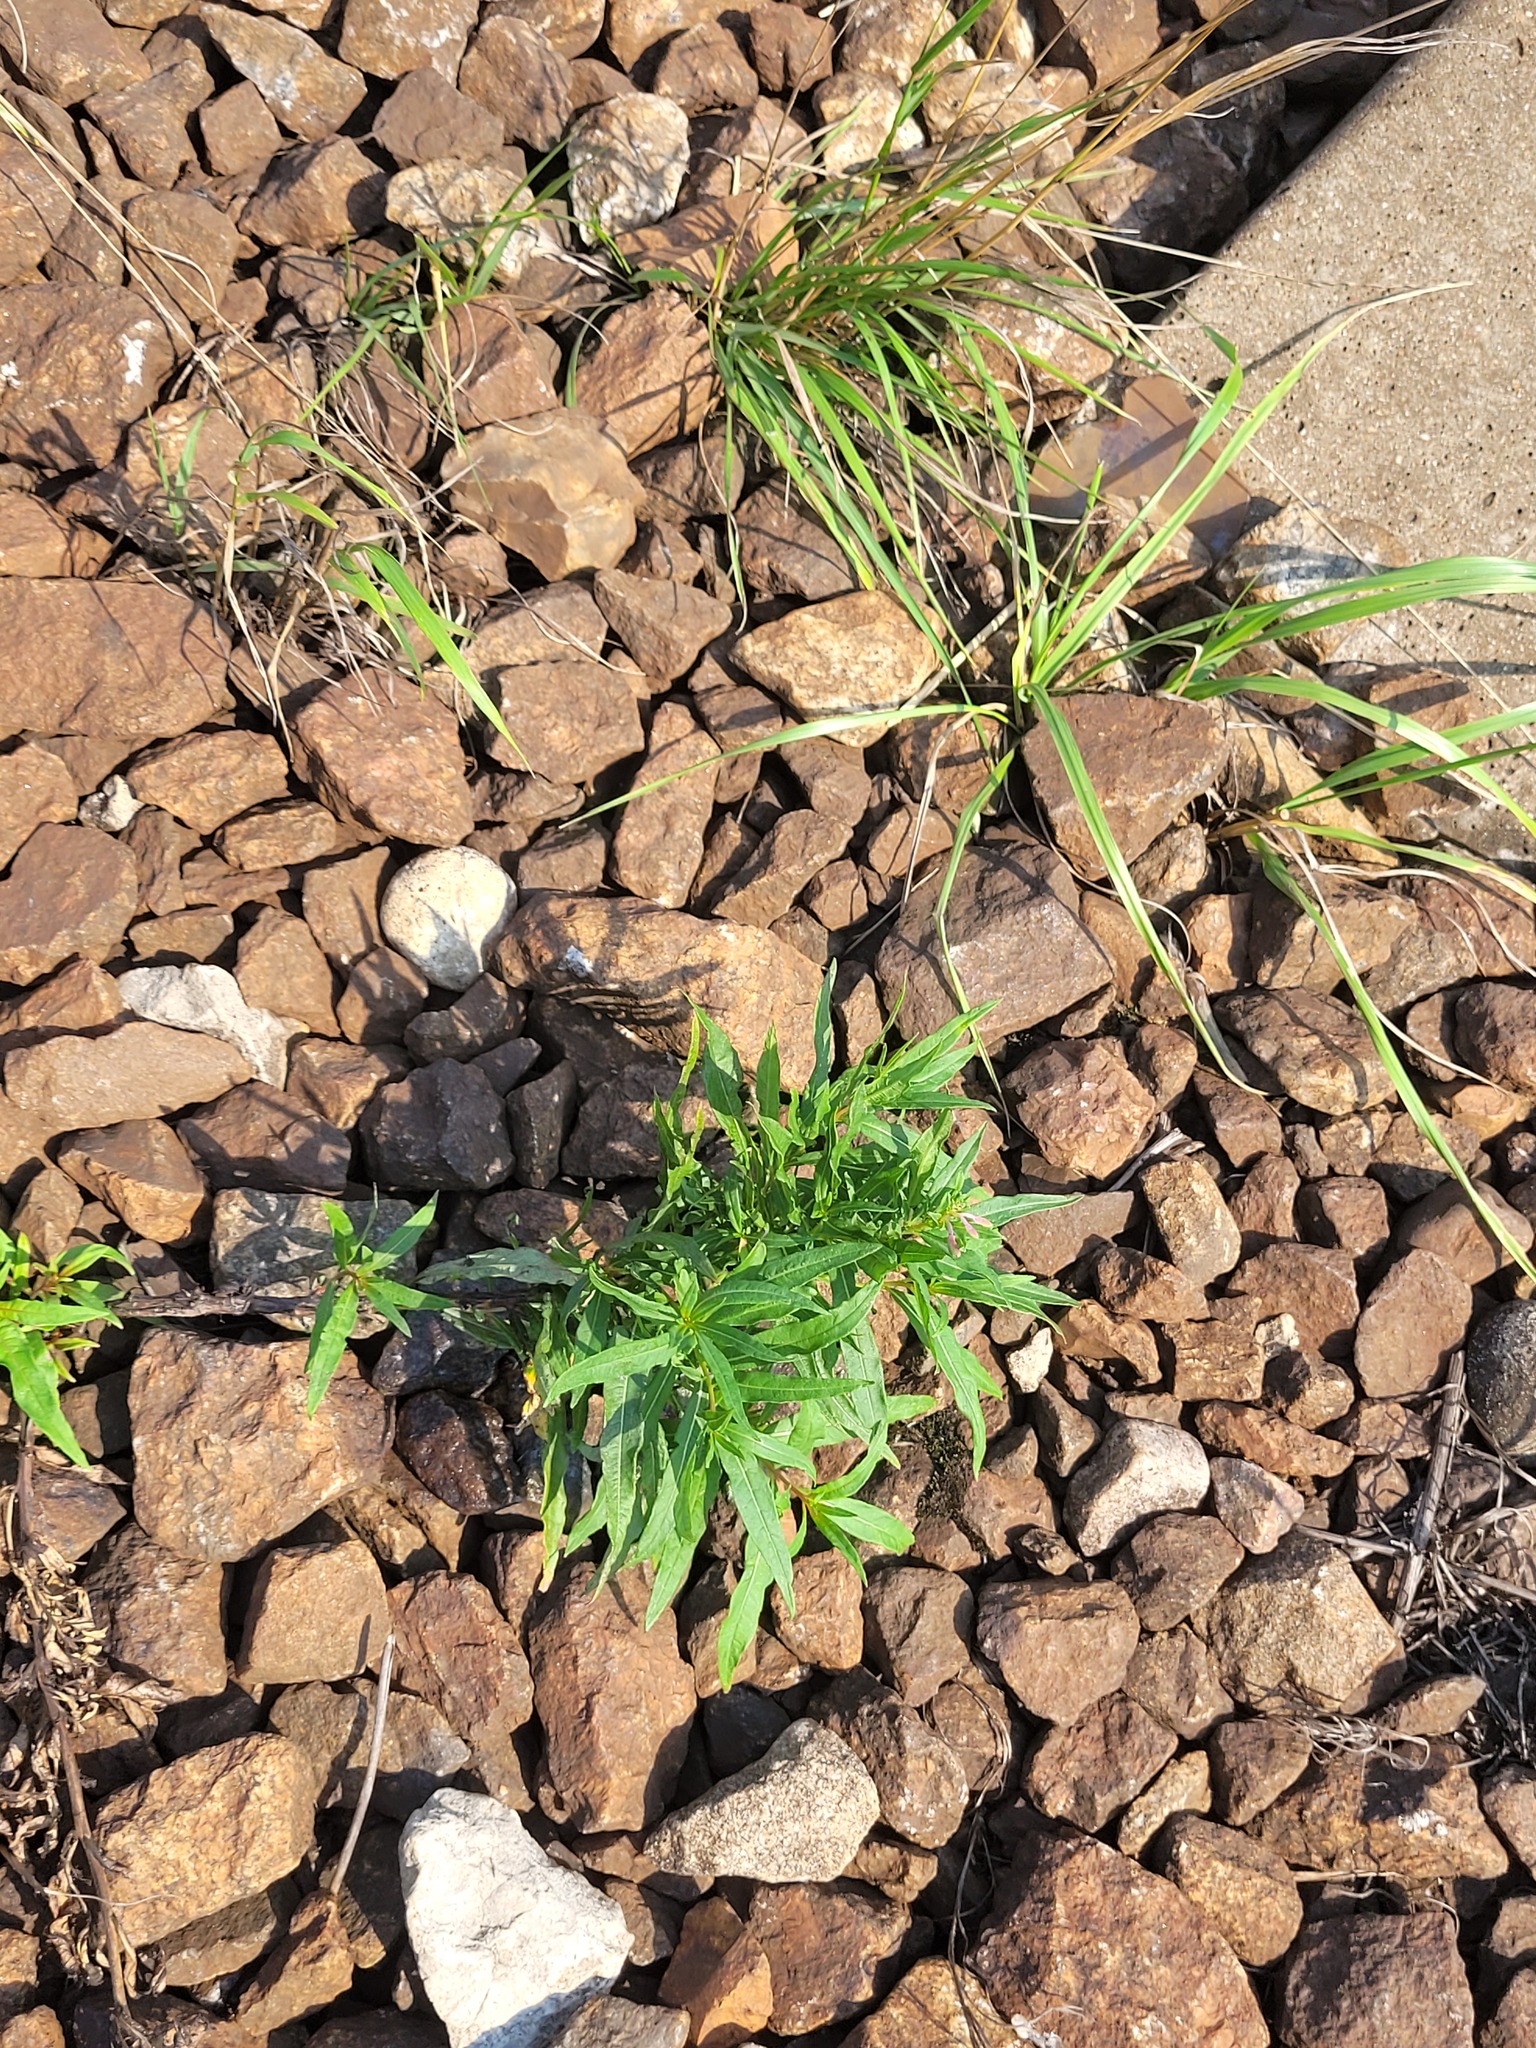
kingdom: Plantae
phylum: Tracheophyta
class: Magnoliopsida
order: Myrtales
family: Onagraceae
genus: Chamaenerion
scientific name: Chamaenerion angustifolium
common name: Fireweed
